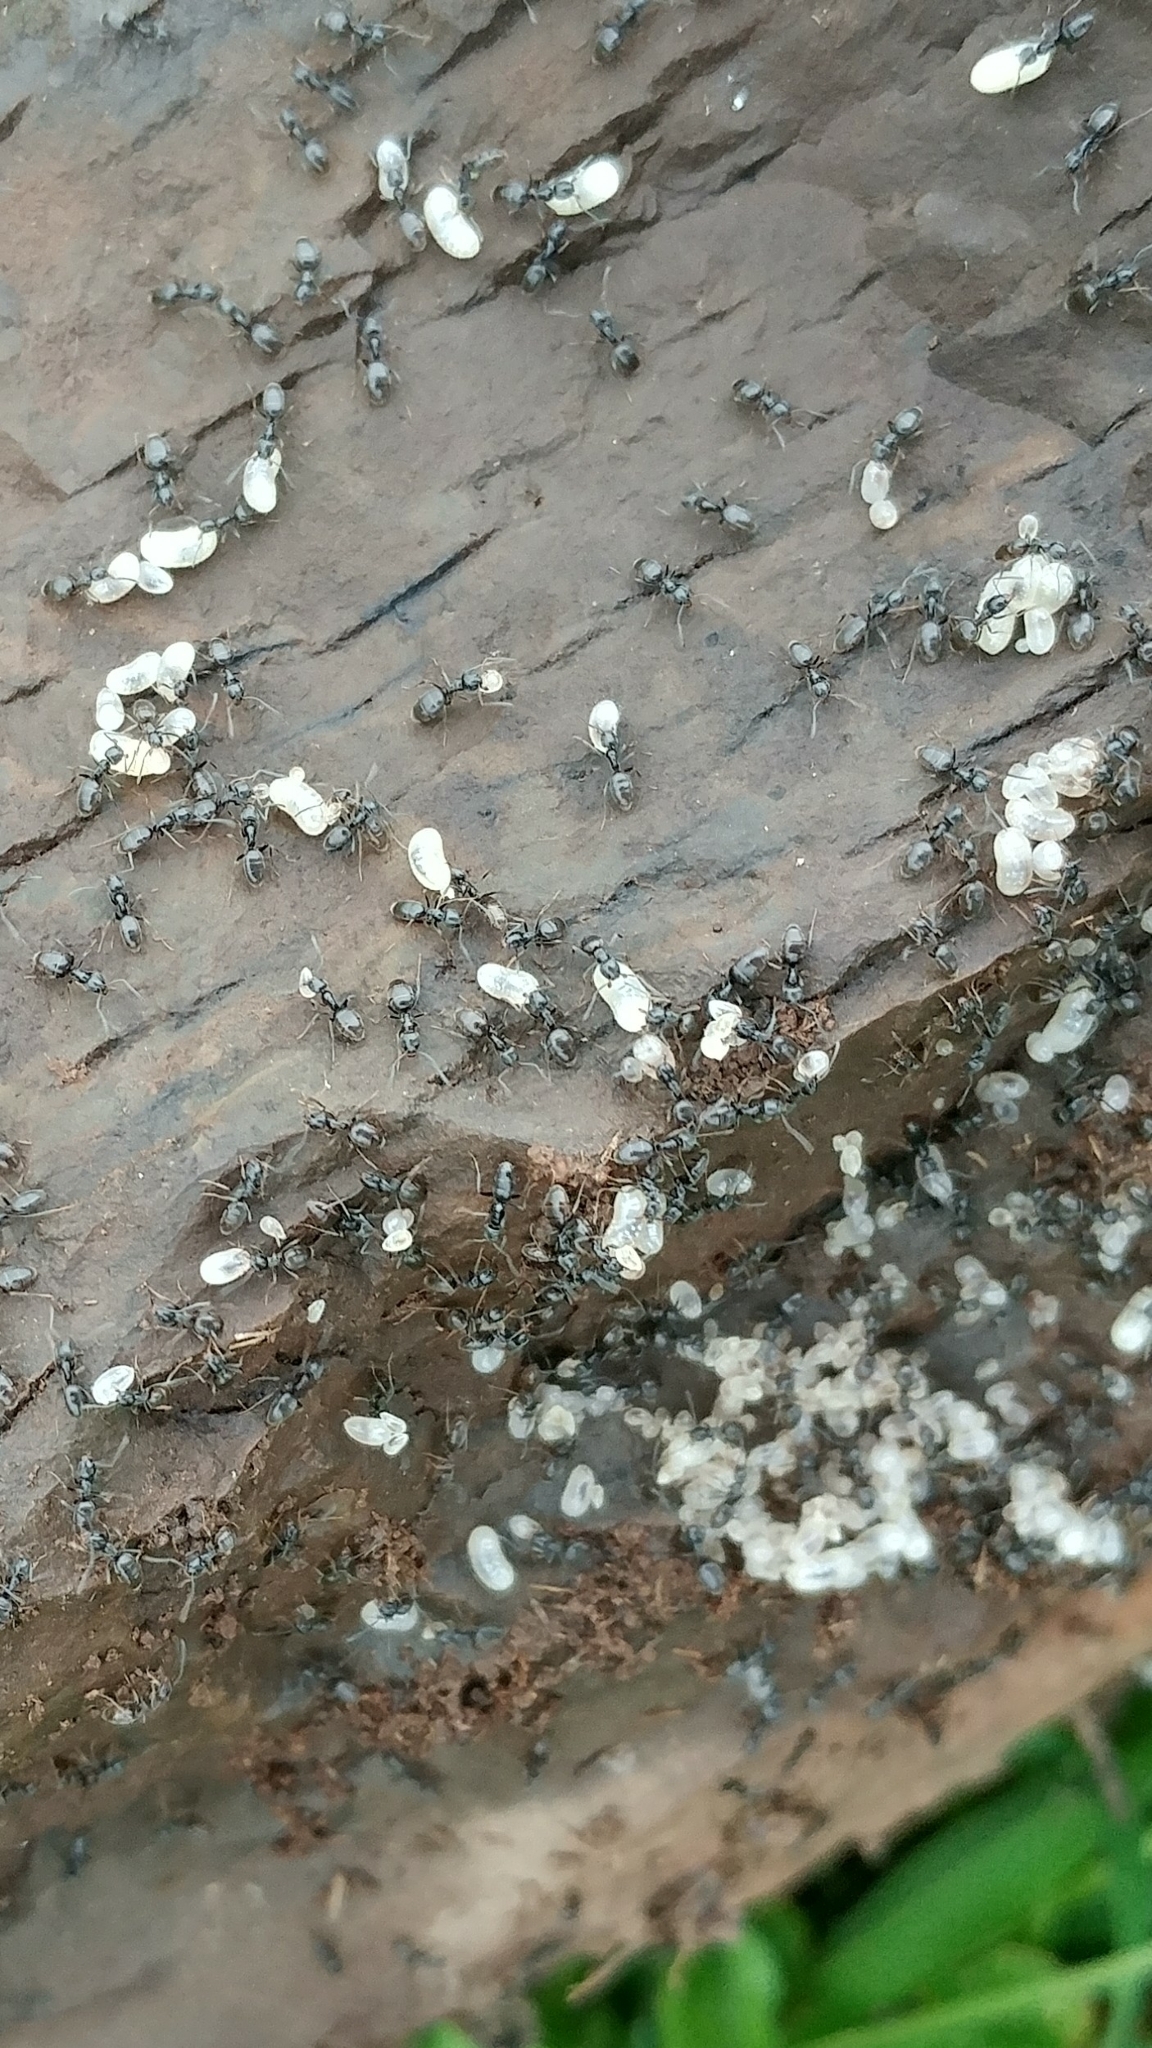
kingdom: Animalia
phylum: Arthropoda
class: Insecta
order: Hymenoptera
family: Formicidae
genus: Tapinoma
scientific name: Tapinoma sessile
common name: Odorous house ant
